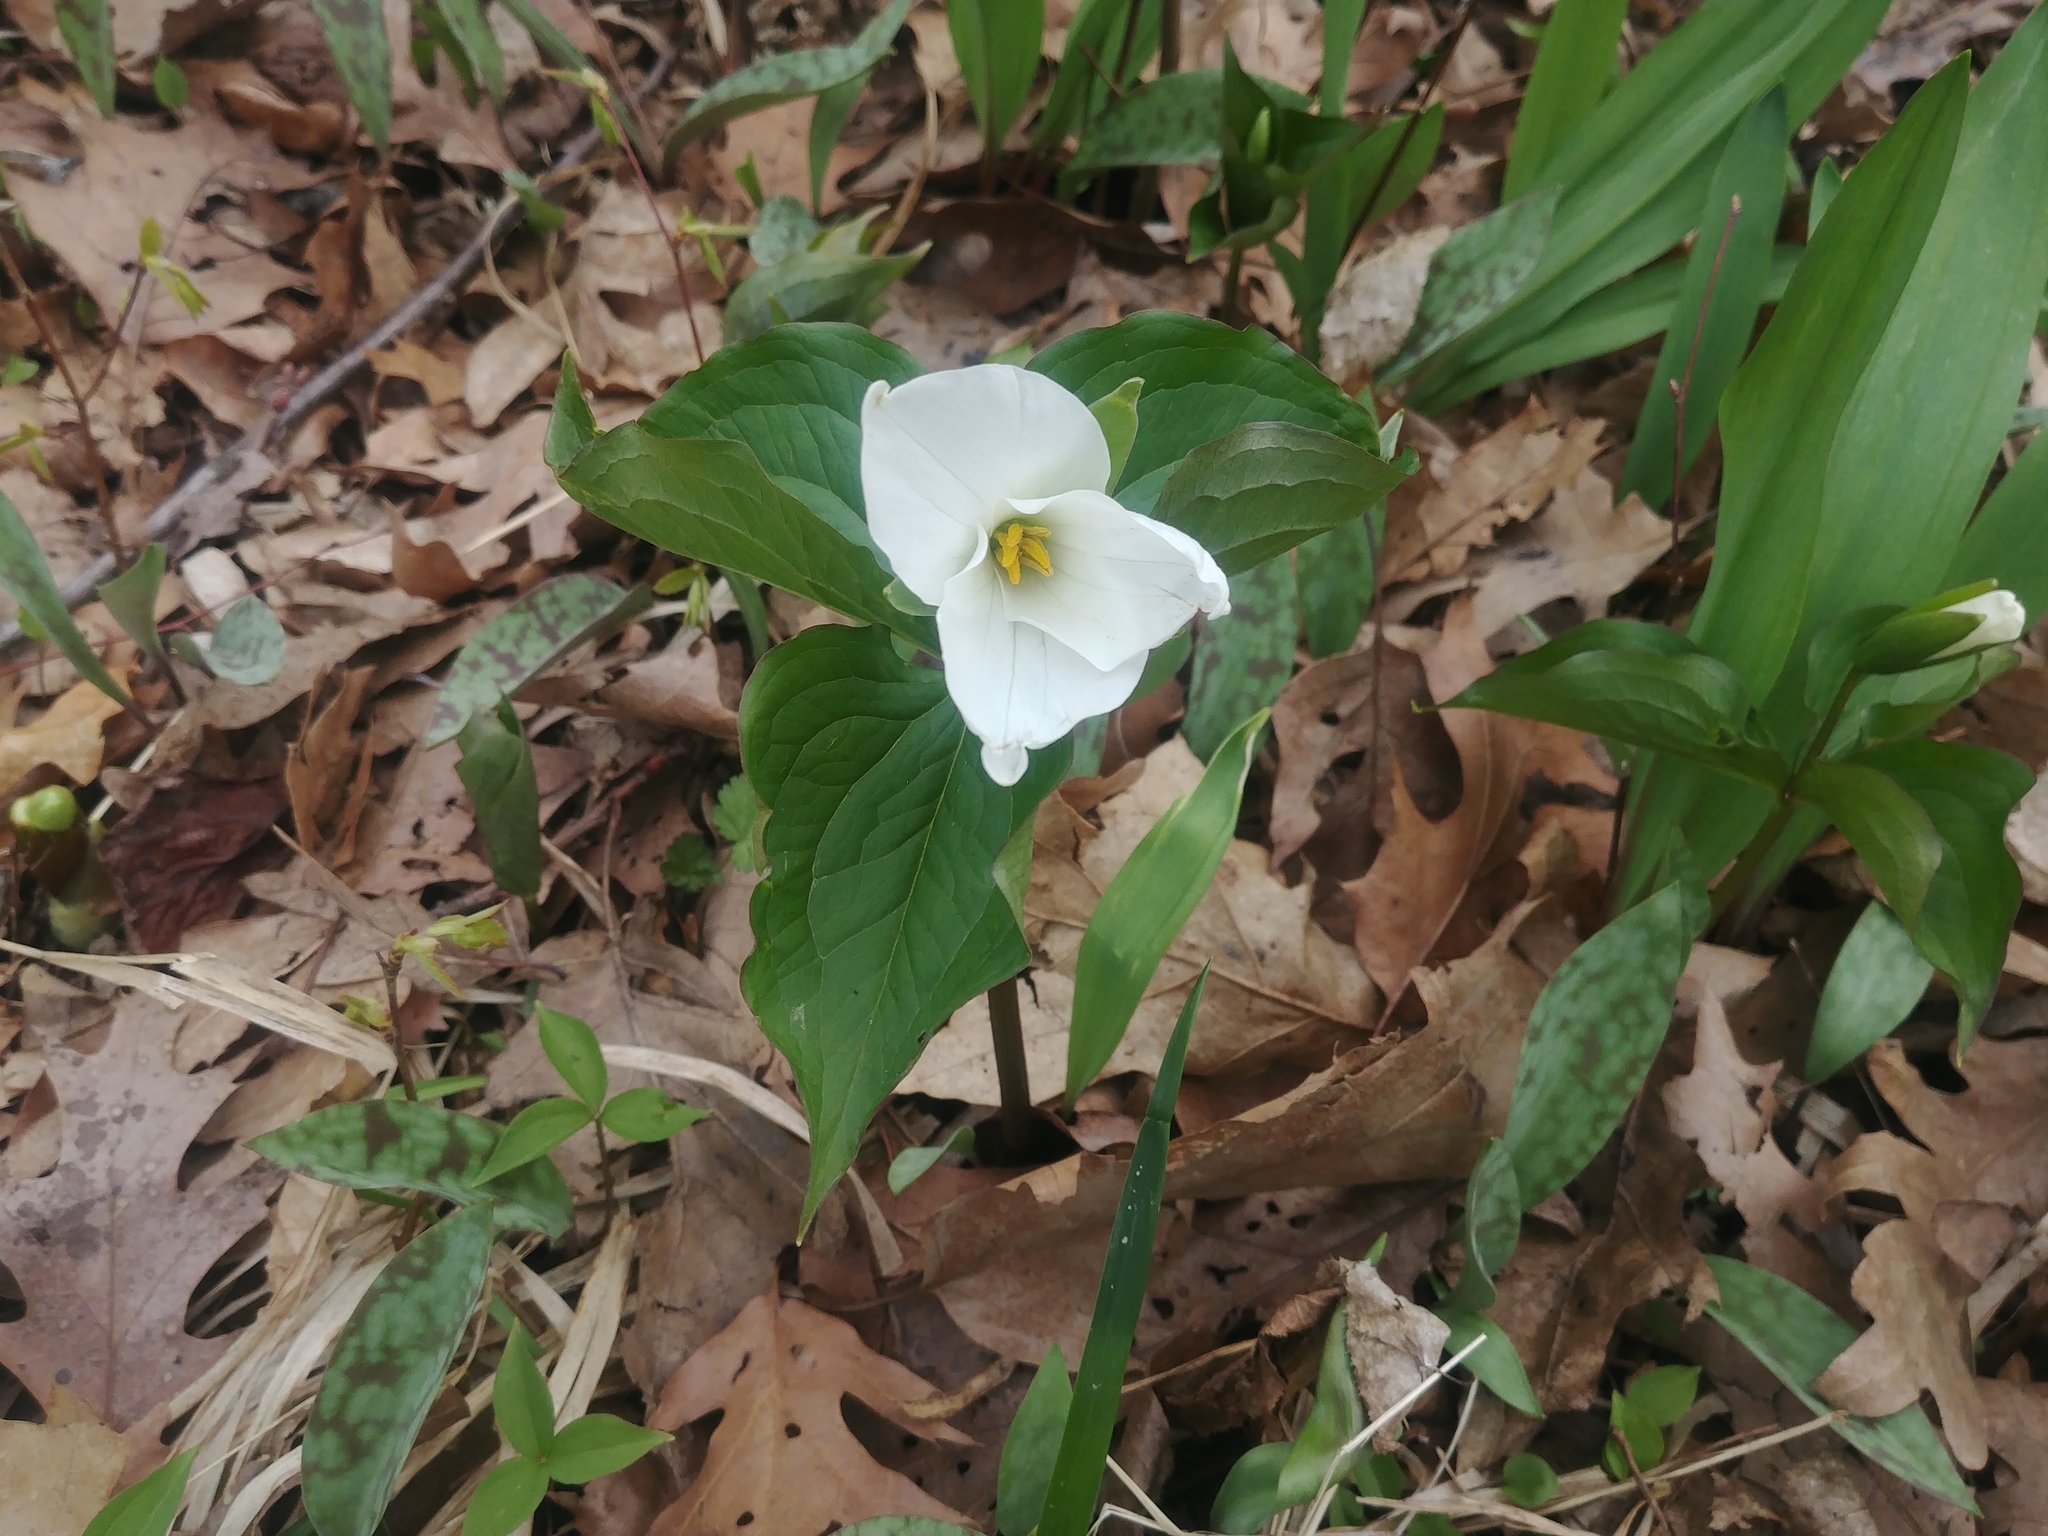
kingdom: Plantae
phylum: Tracheophyta
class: Liliopsida
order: Liliales
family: Melanthiaceae
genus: Trillium
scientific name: Trillium grandiflorum
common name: Great white trillium
